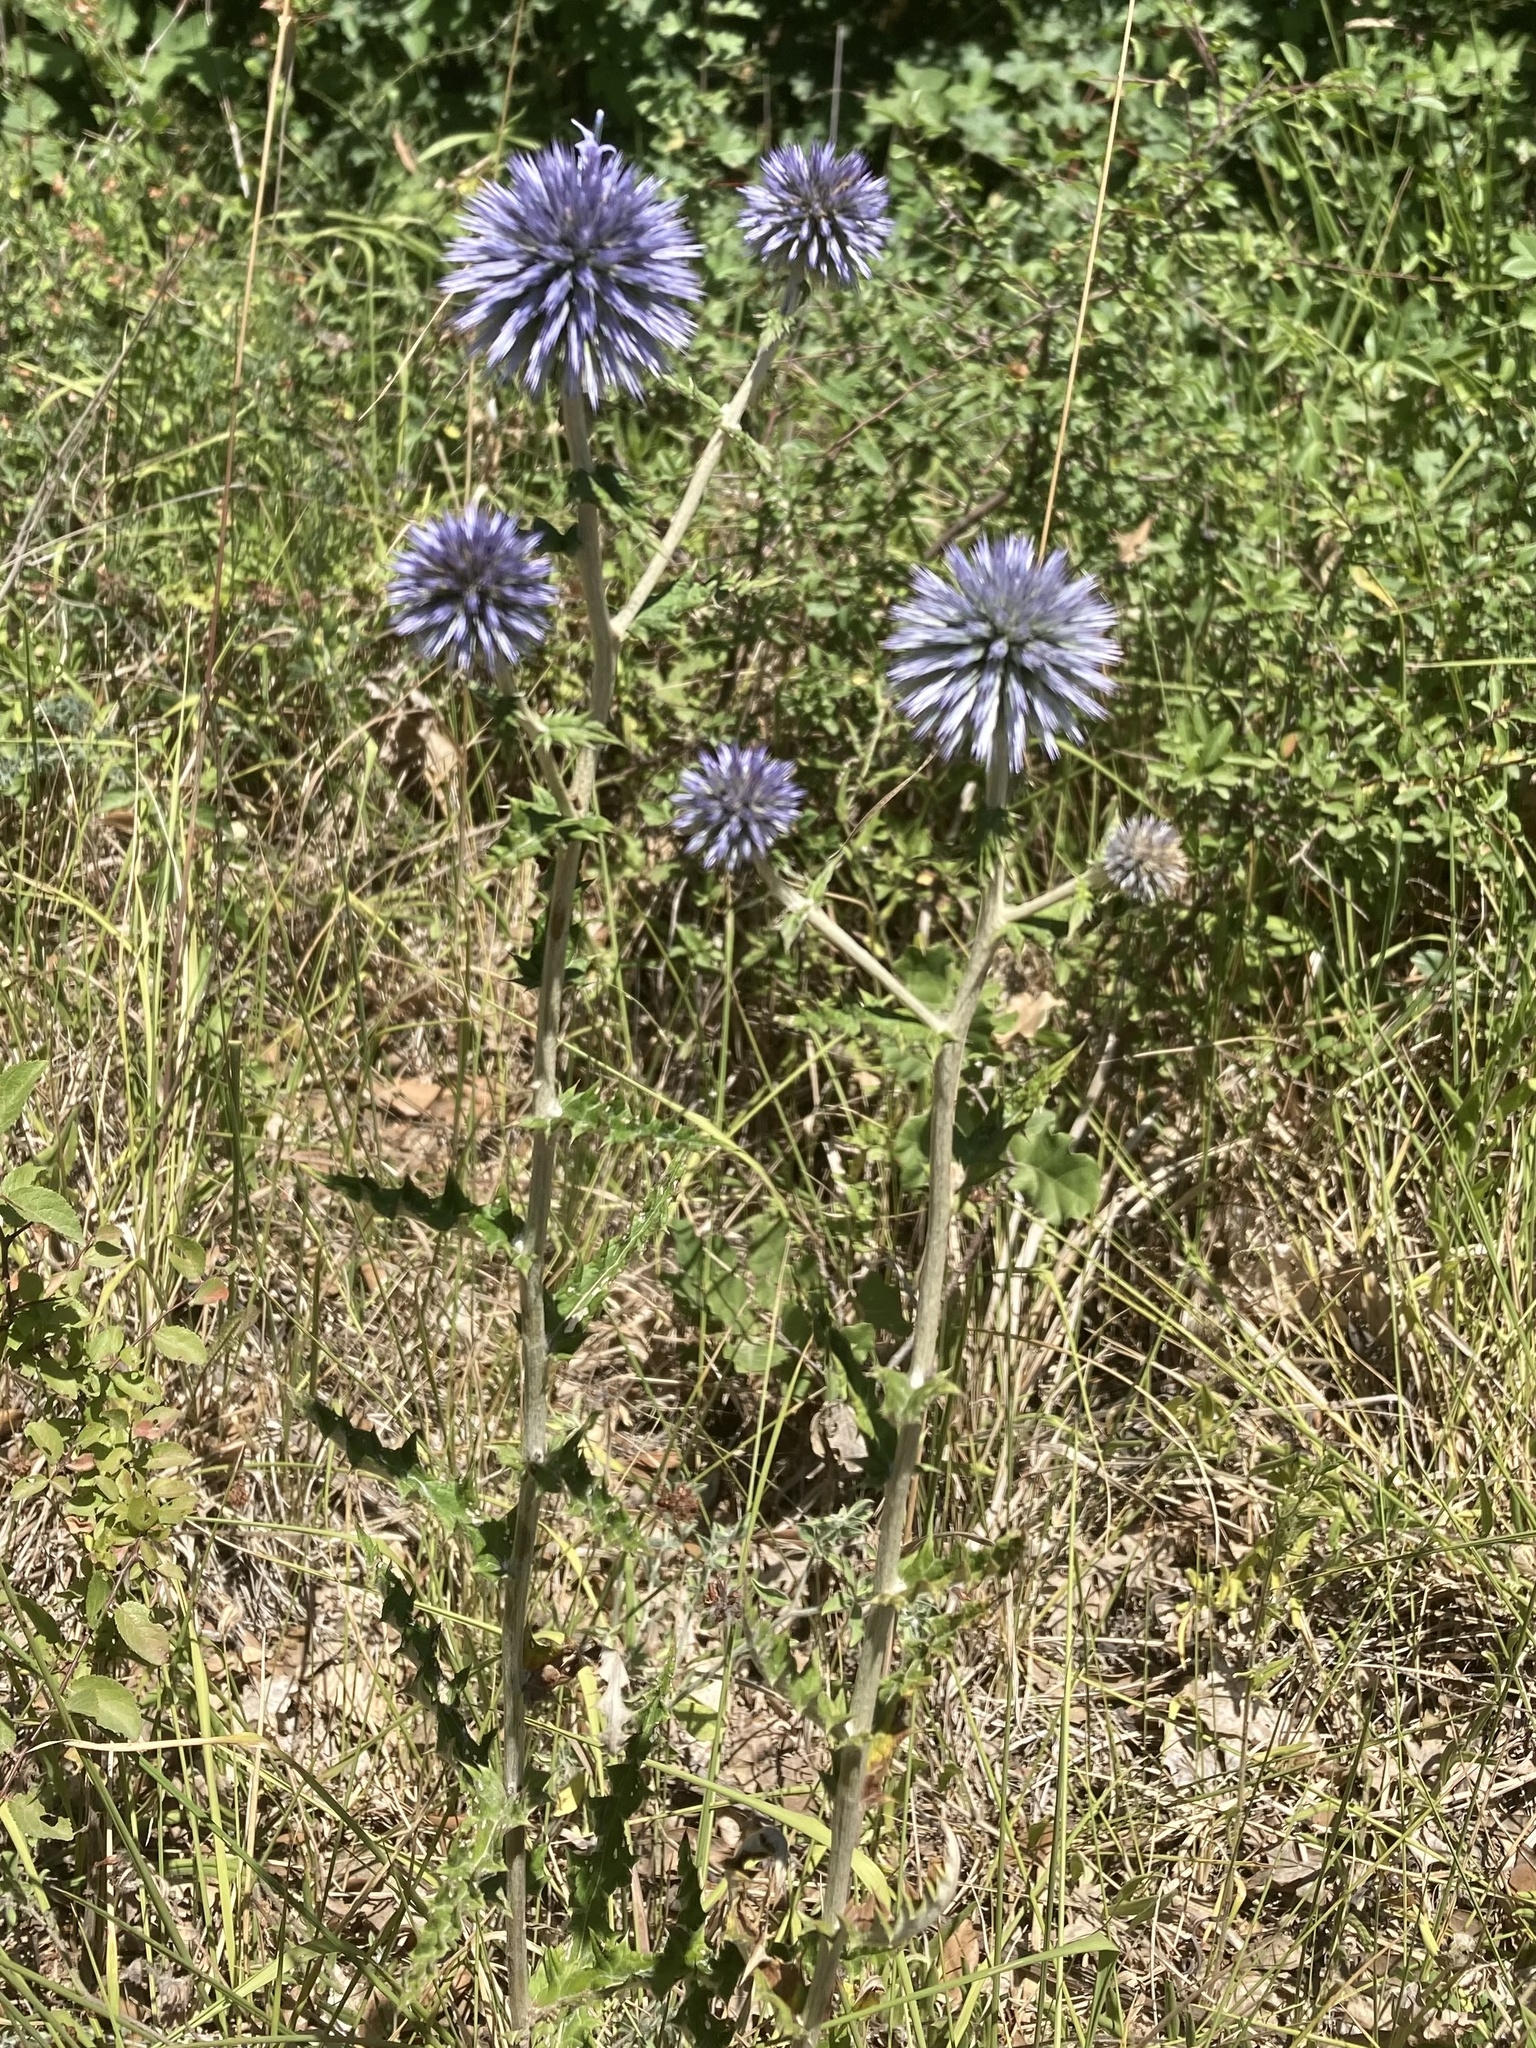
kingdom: Plantae
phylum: Tracheophyta
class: Magnoliopsida
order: Asterales
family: Asteraceae
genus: Echinops
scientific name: Echinops ritro
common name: Globe thistle
